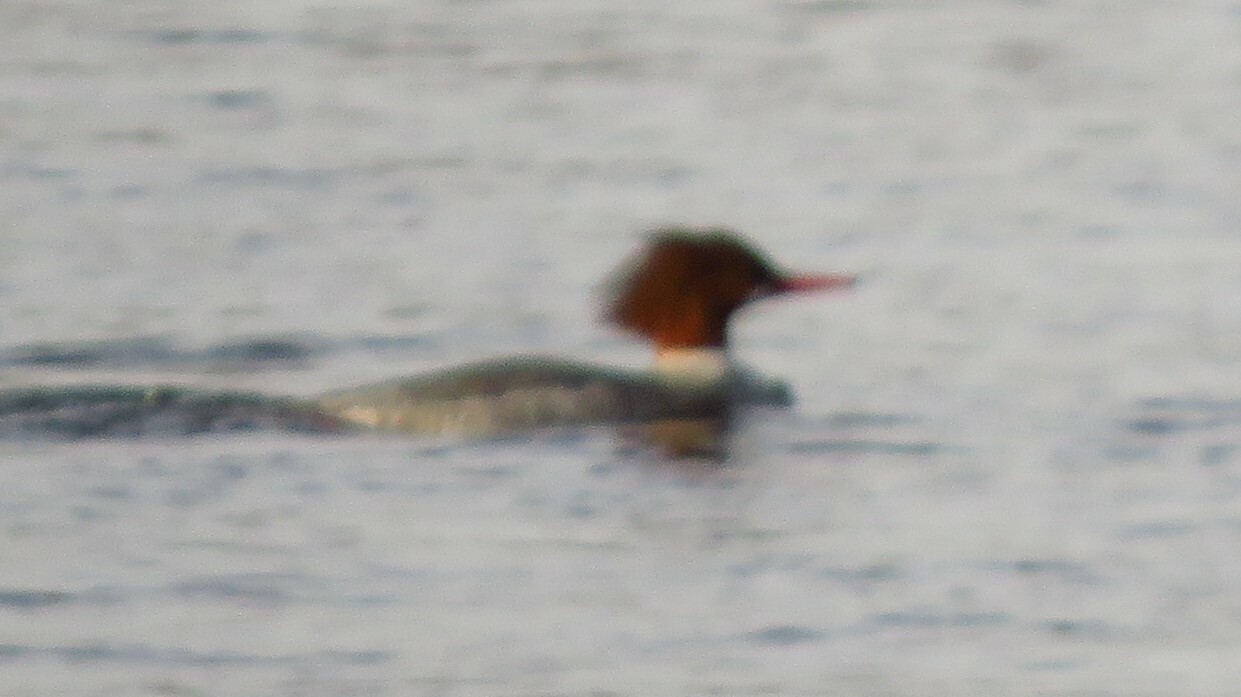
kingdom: Animalia
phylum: Chordata
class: Aves
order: Anseriformes
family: Anatidae
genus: Mergus
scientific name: Mergus merganser
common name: Common merganser
